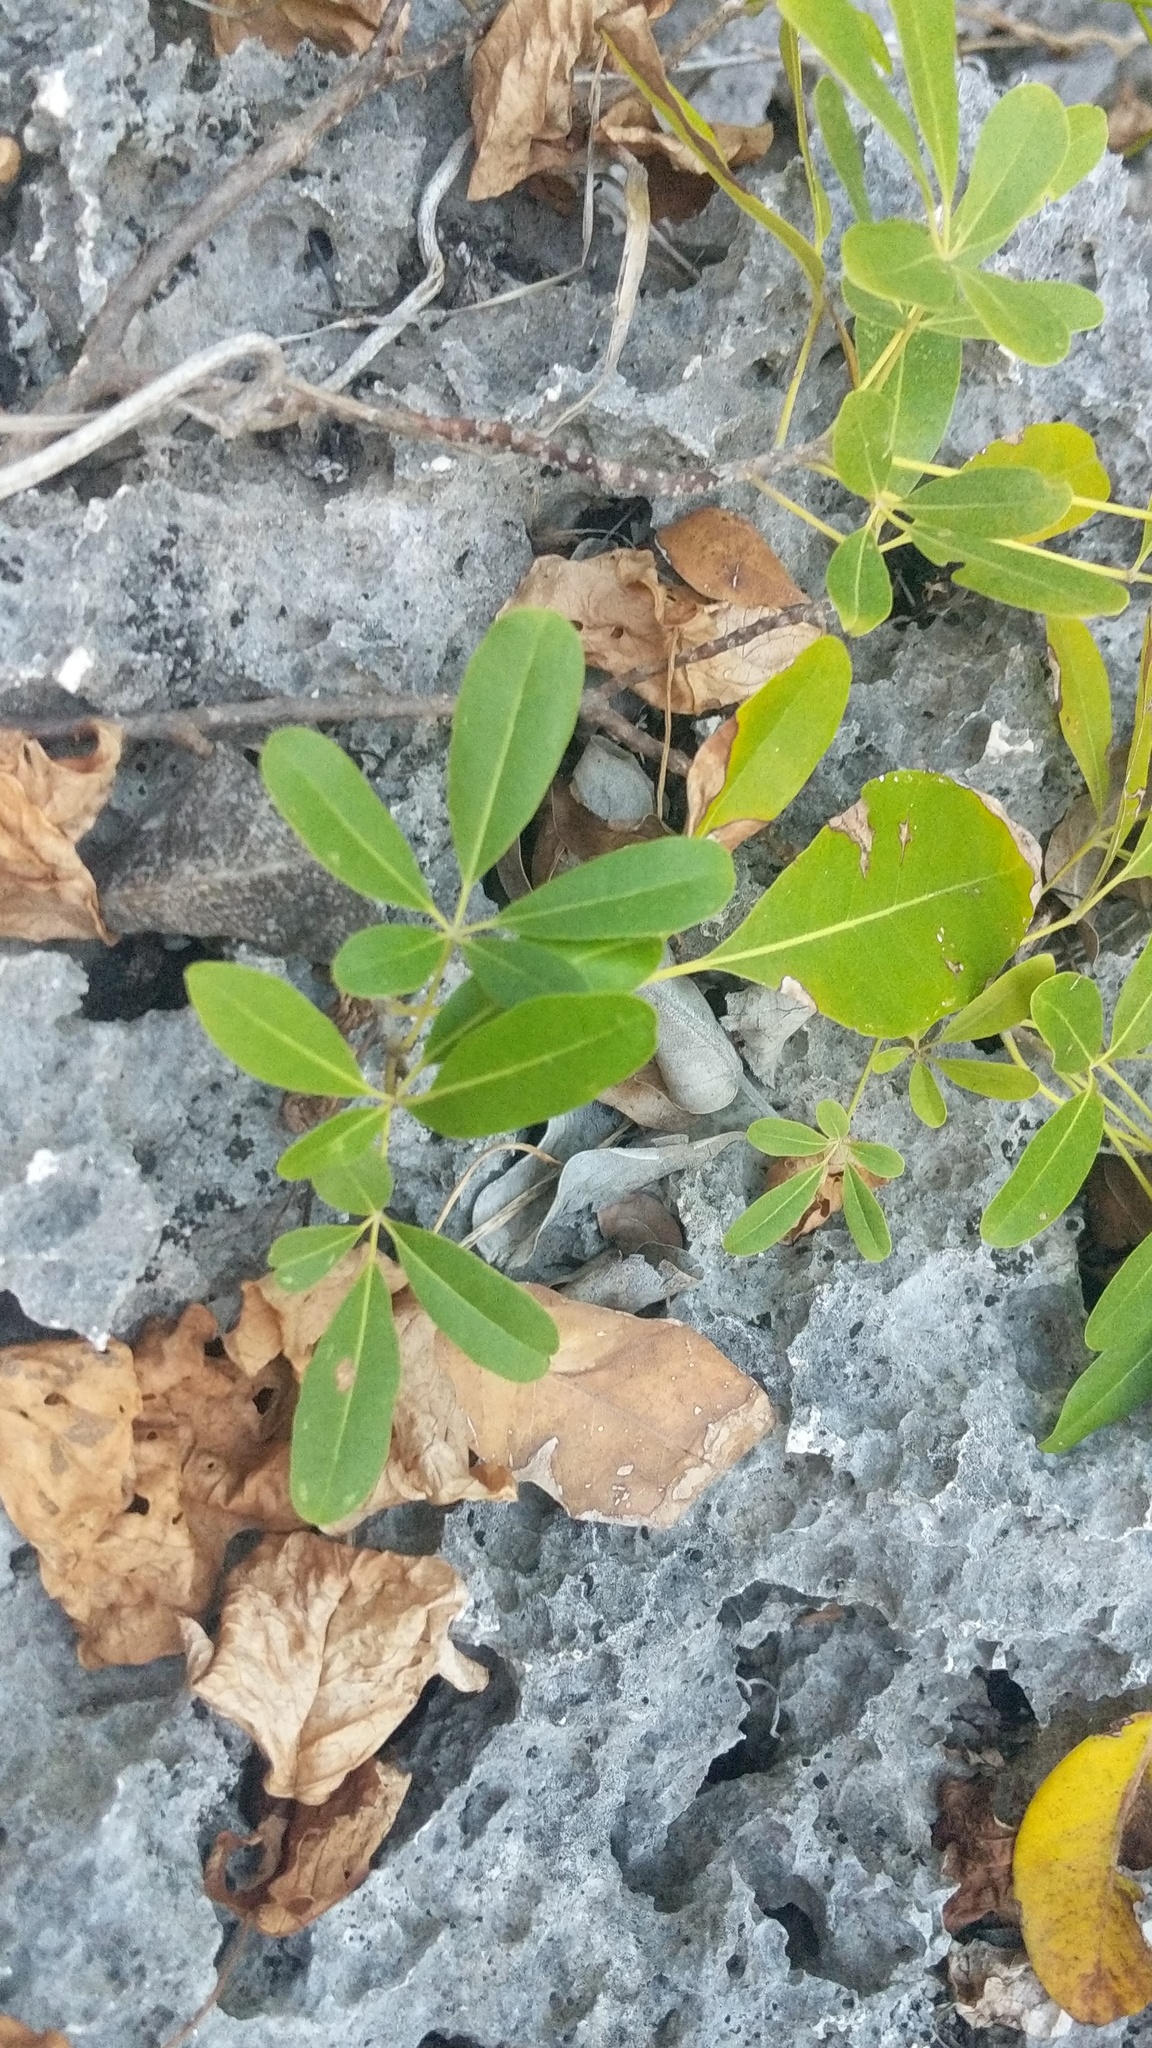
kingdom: Plantae
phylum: Tracheophyta
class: Magnoliopsida
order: Lamiales
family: Bignoniaceae
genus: Tabebuia
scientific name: Tabebuia heterophylla
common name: White cedar
